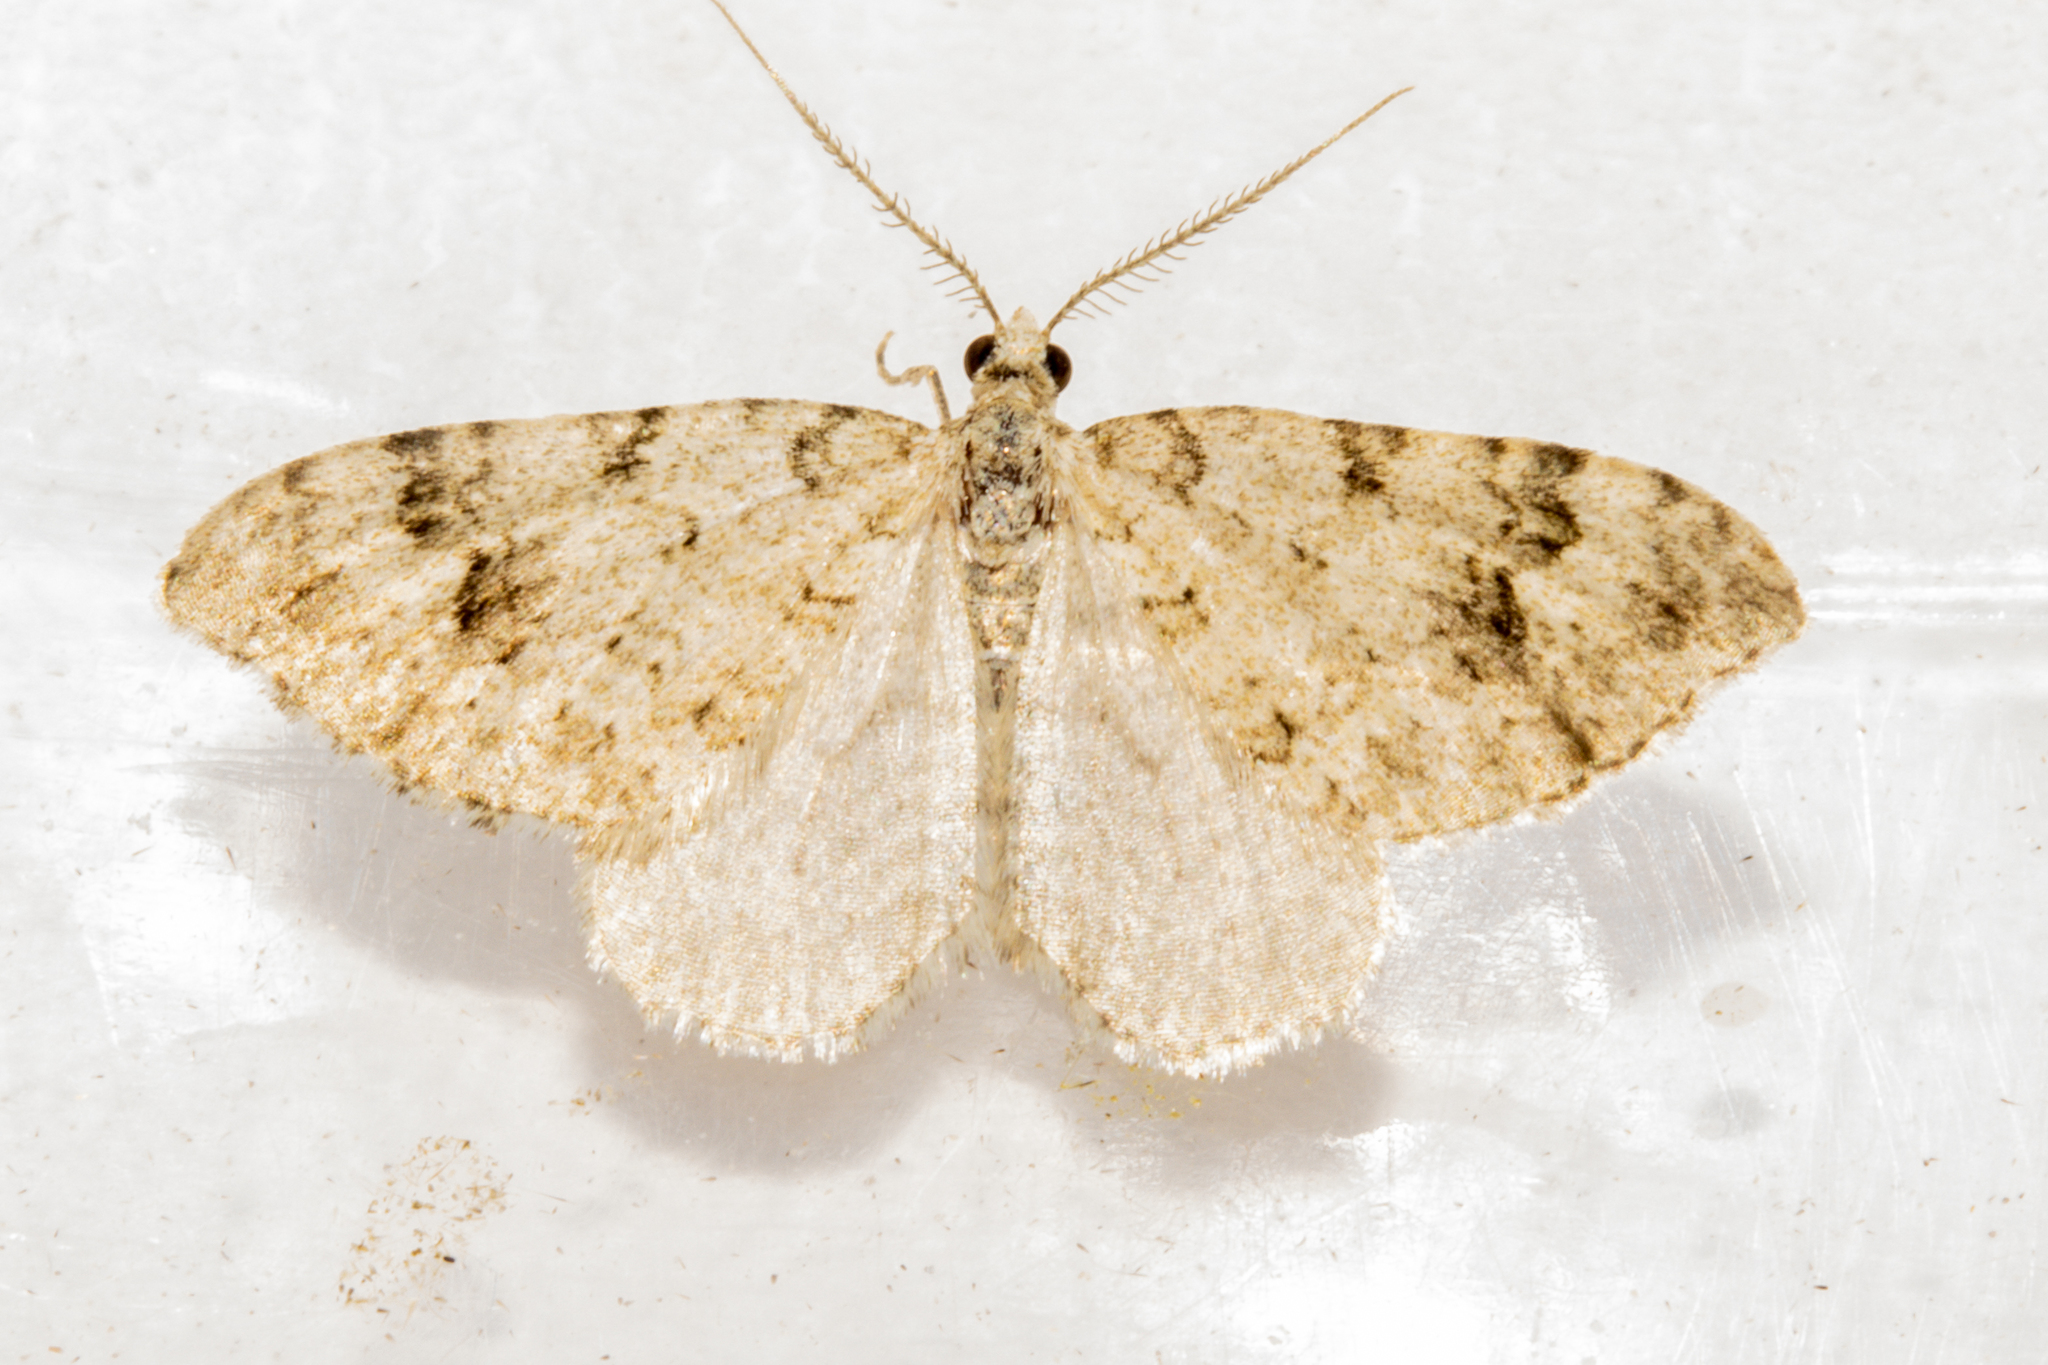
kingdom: Animalia
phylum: Arthropoda
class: Insecta
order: Lepidoptera
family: Geometridae
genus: Helastia
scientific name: Helastia cinerearia
